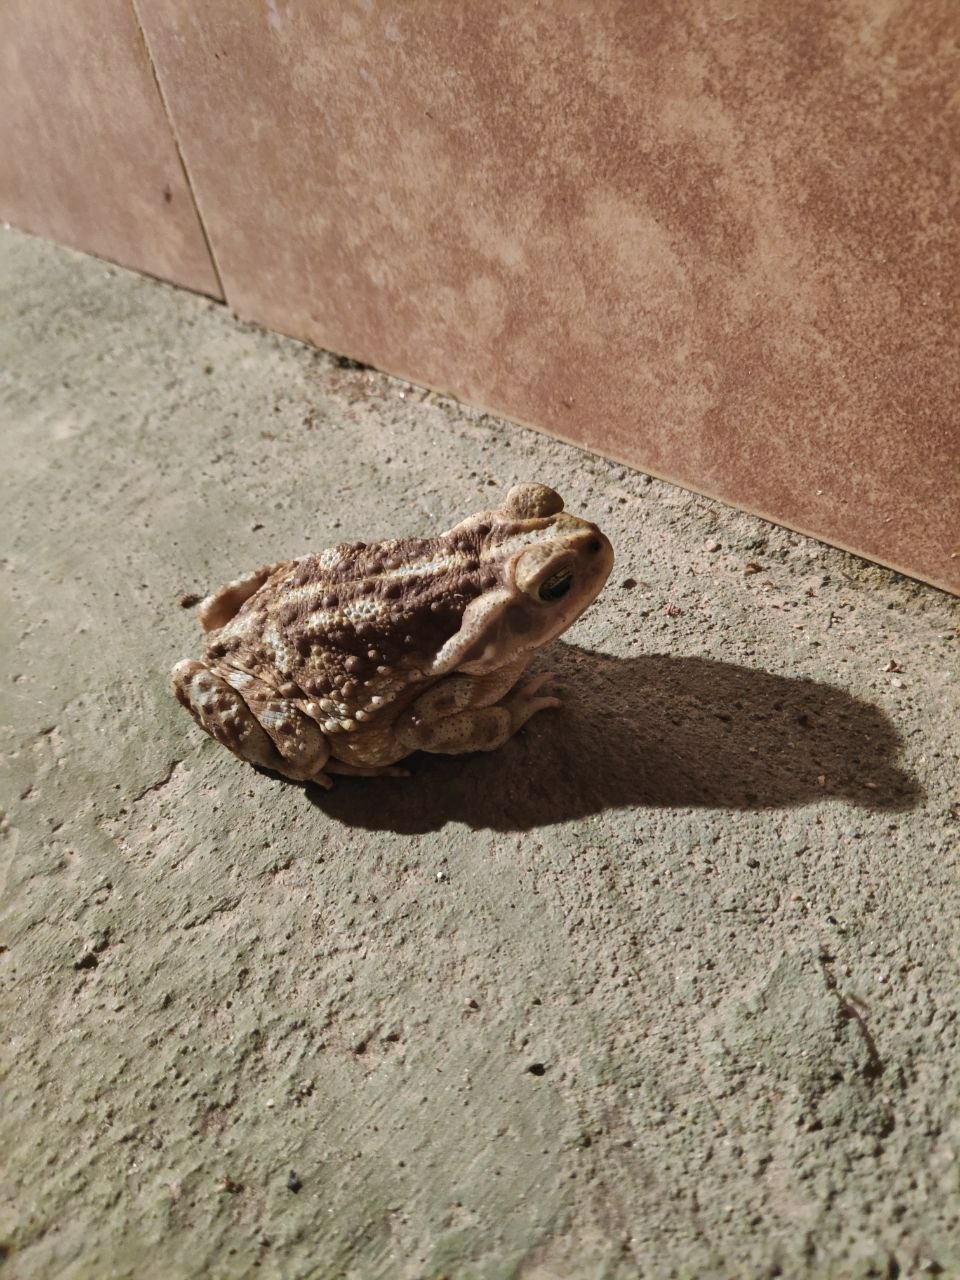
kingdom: Animalia
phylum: Chordata
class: Amphibia
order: Anura
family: Bufonidae
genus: Rhinella
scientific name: Rhinella arenarum
